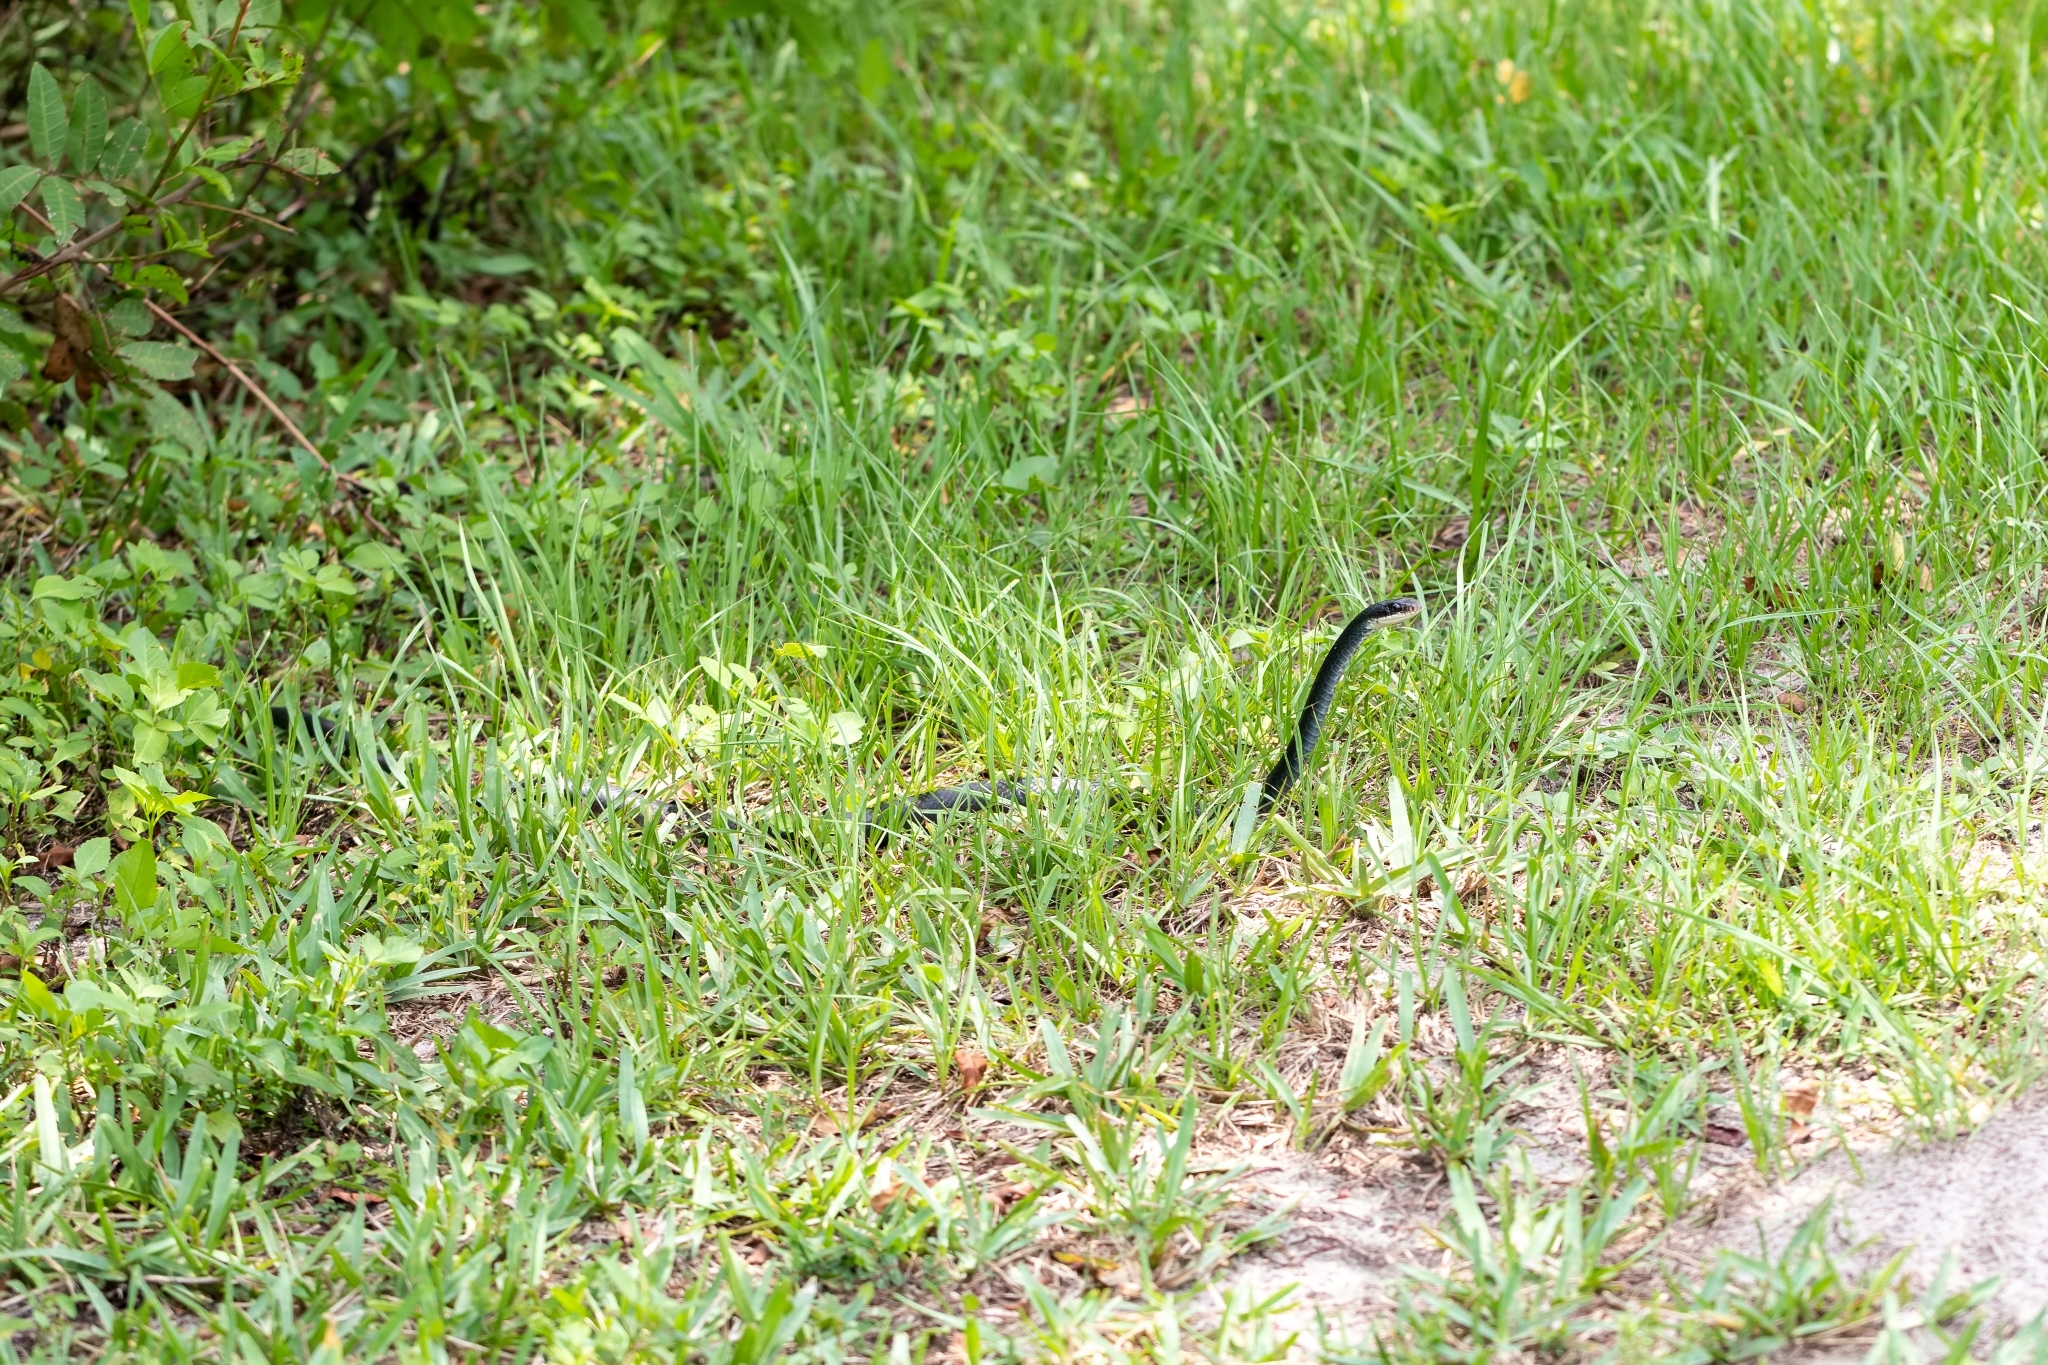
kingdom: Animalia
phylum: Chordata
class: Squamata
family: Colubridae
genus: Coluber
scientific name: Coluber constrictor
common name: Eastern racer
